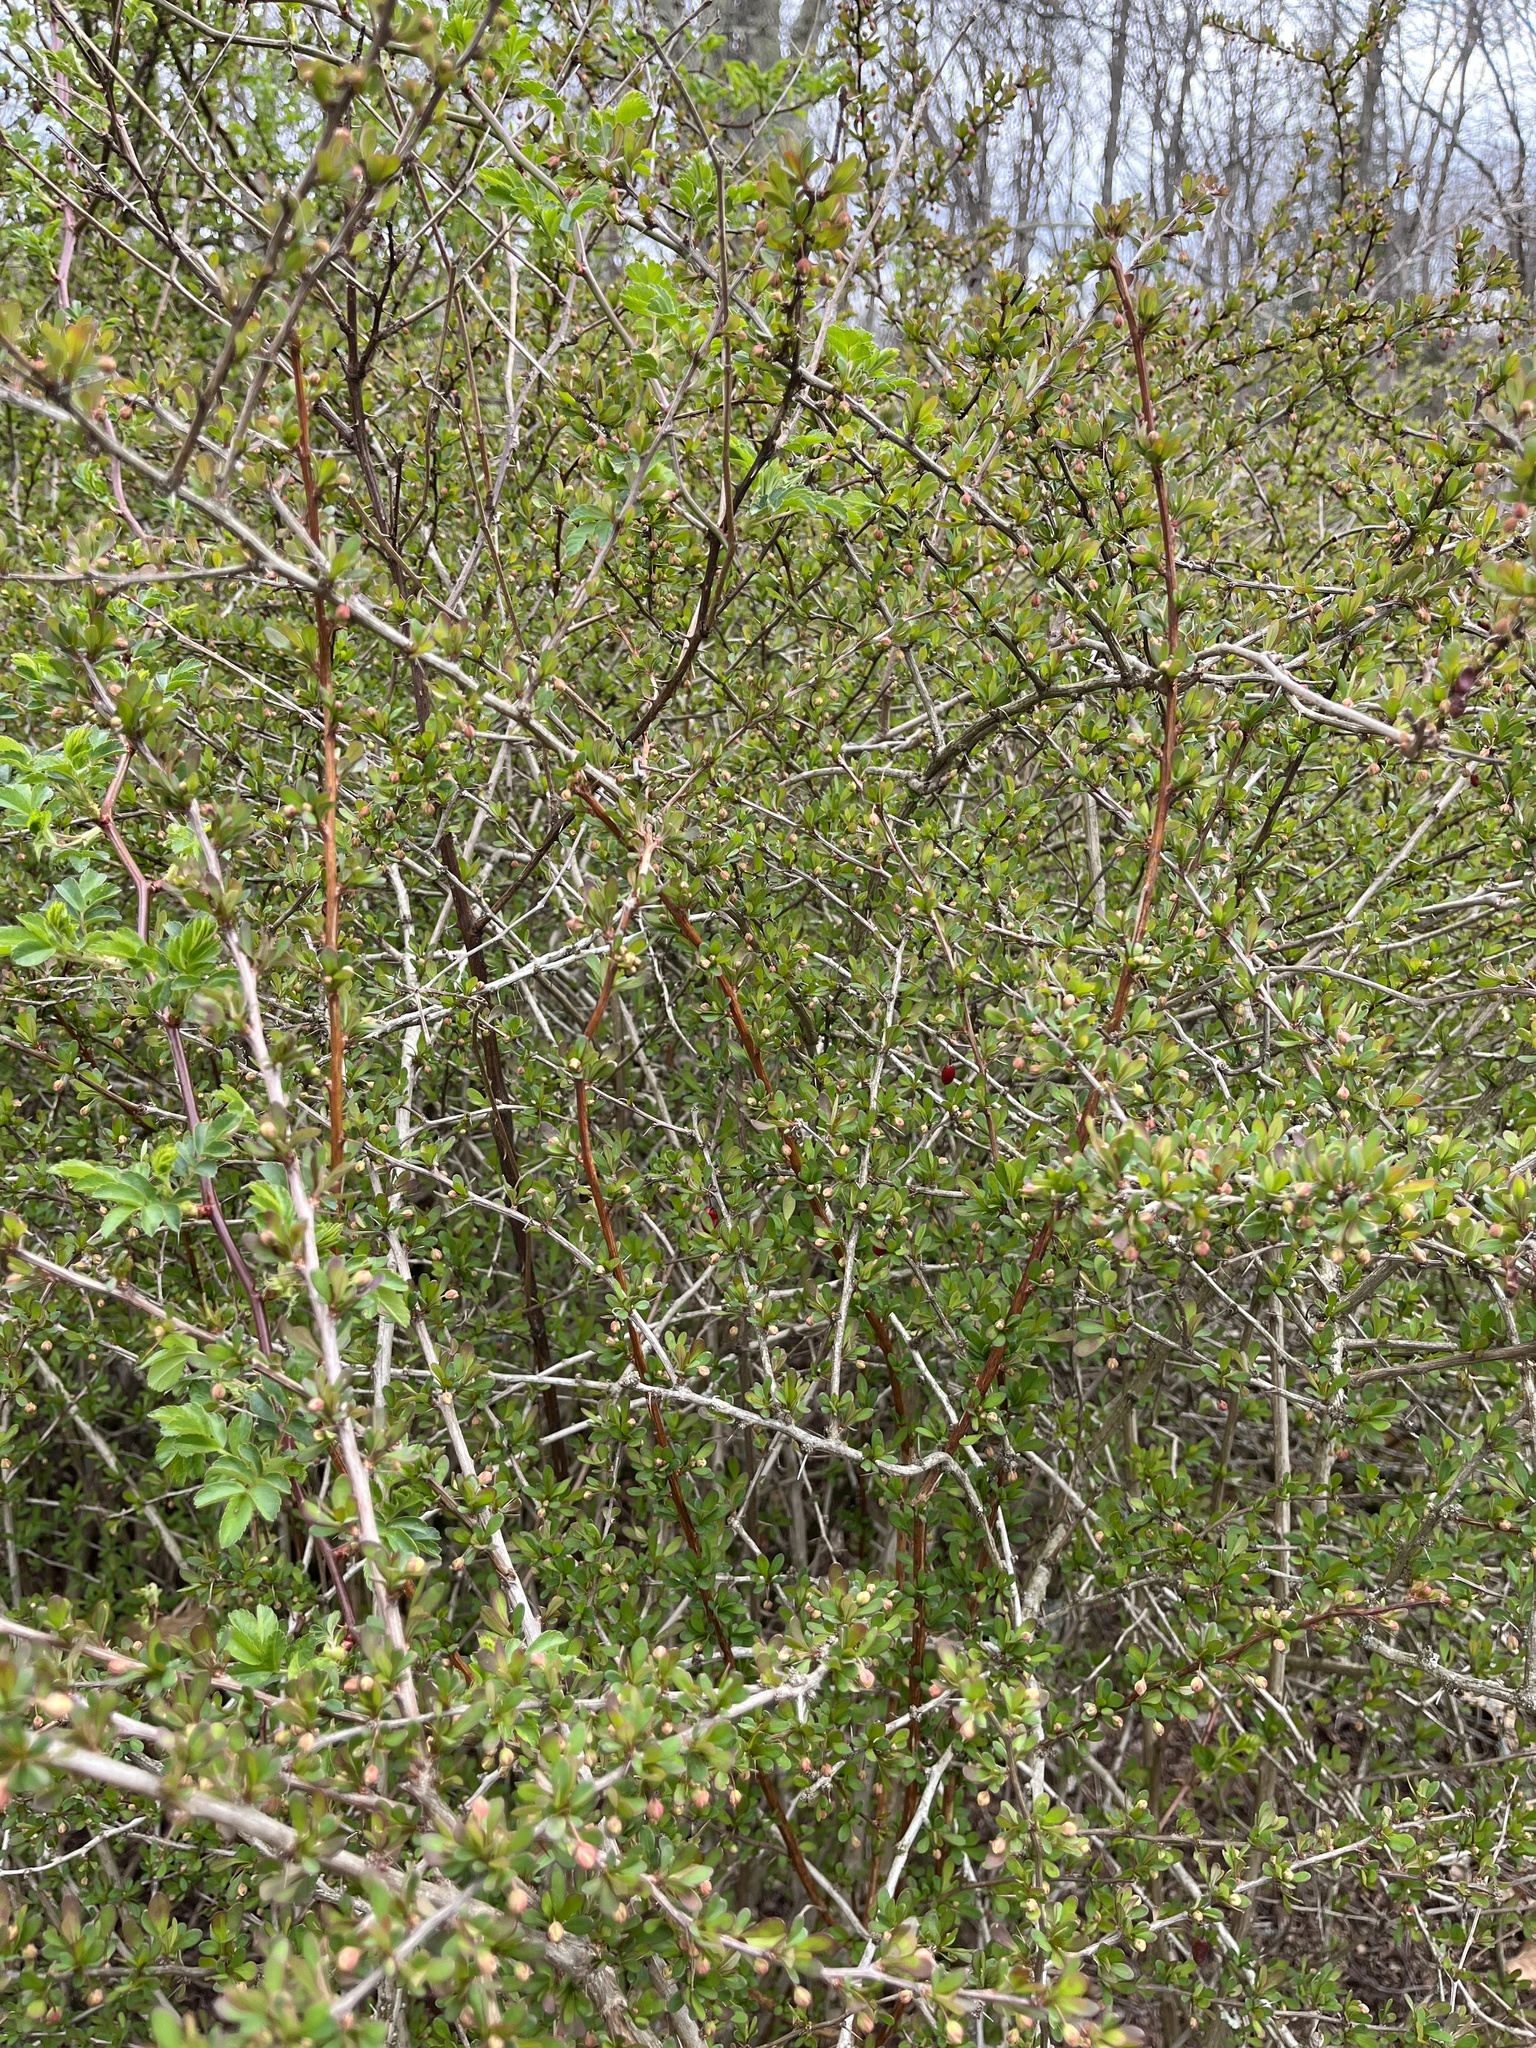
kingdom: Plantae
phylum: Tracheophyta
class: Magnoliopsida
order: Ranunculales
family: Berberidaceae
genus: Berberis
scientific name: Berberis thunbergii
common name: Japanese barberry
